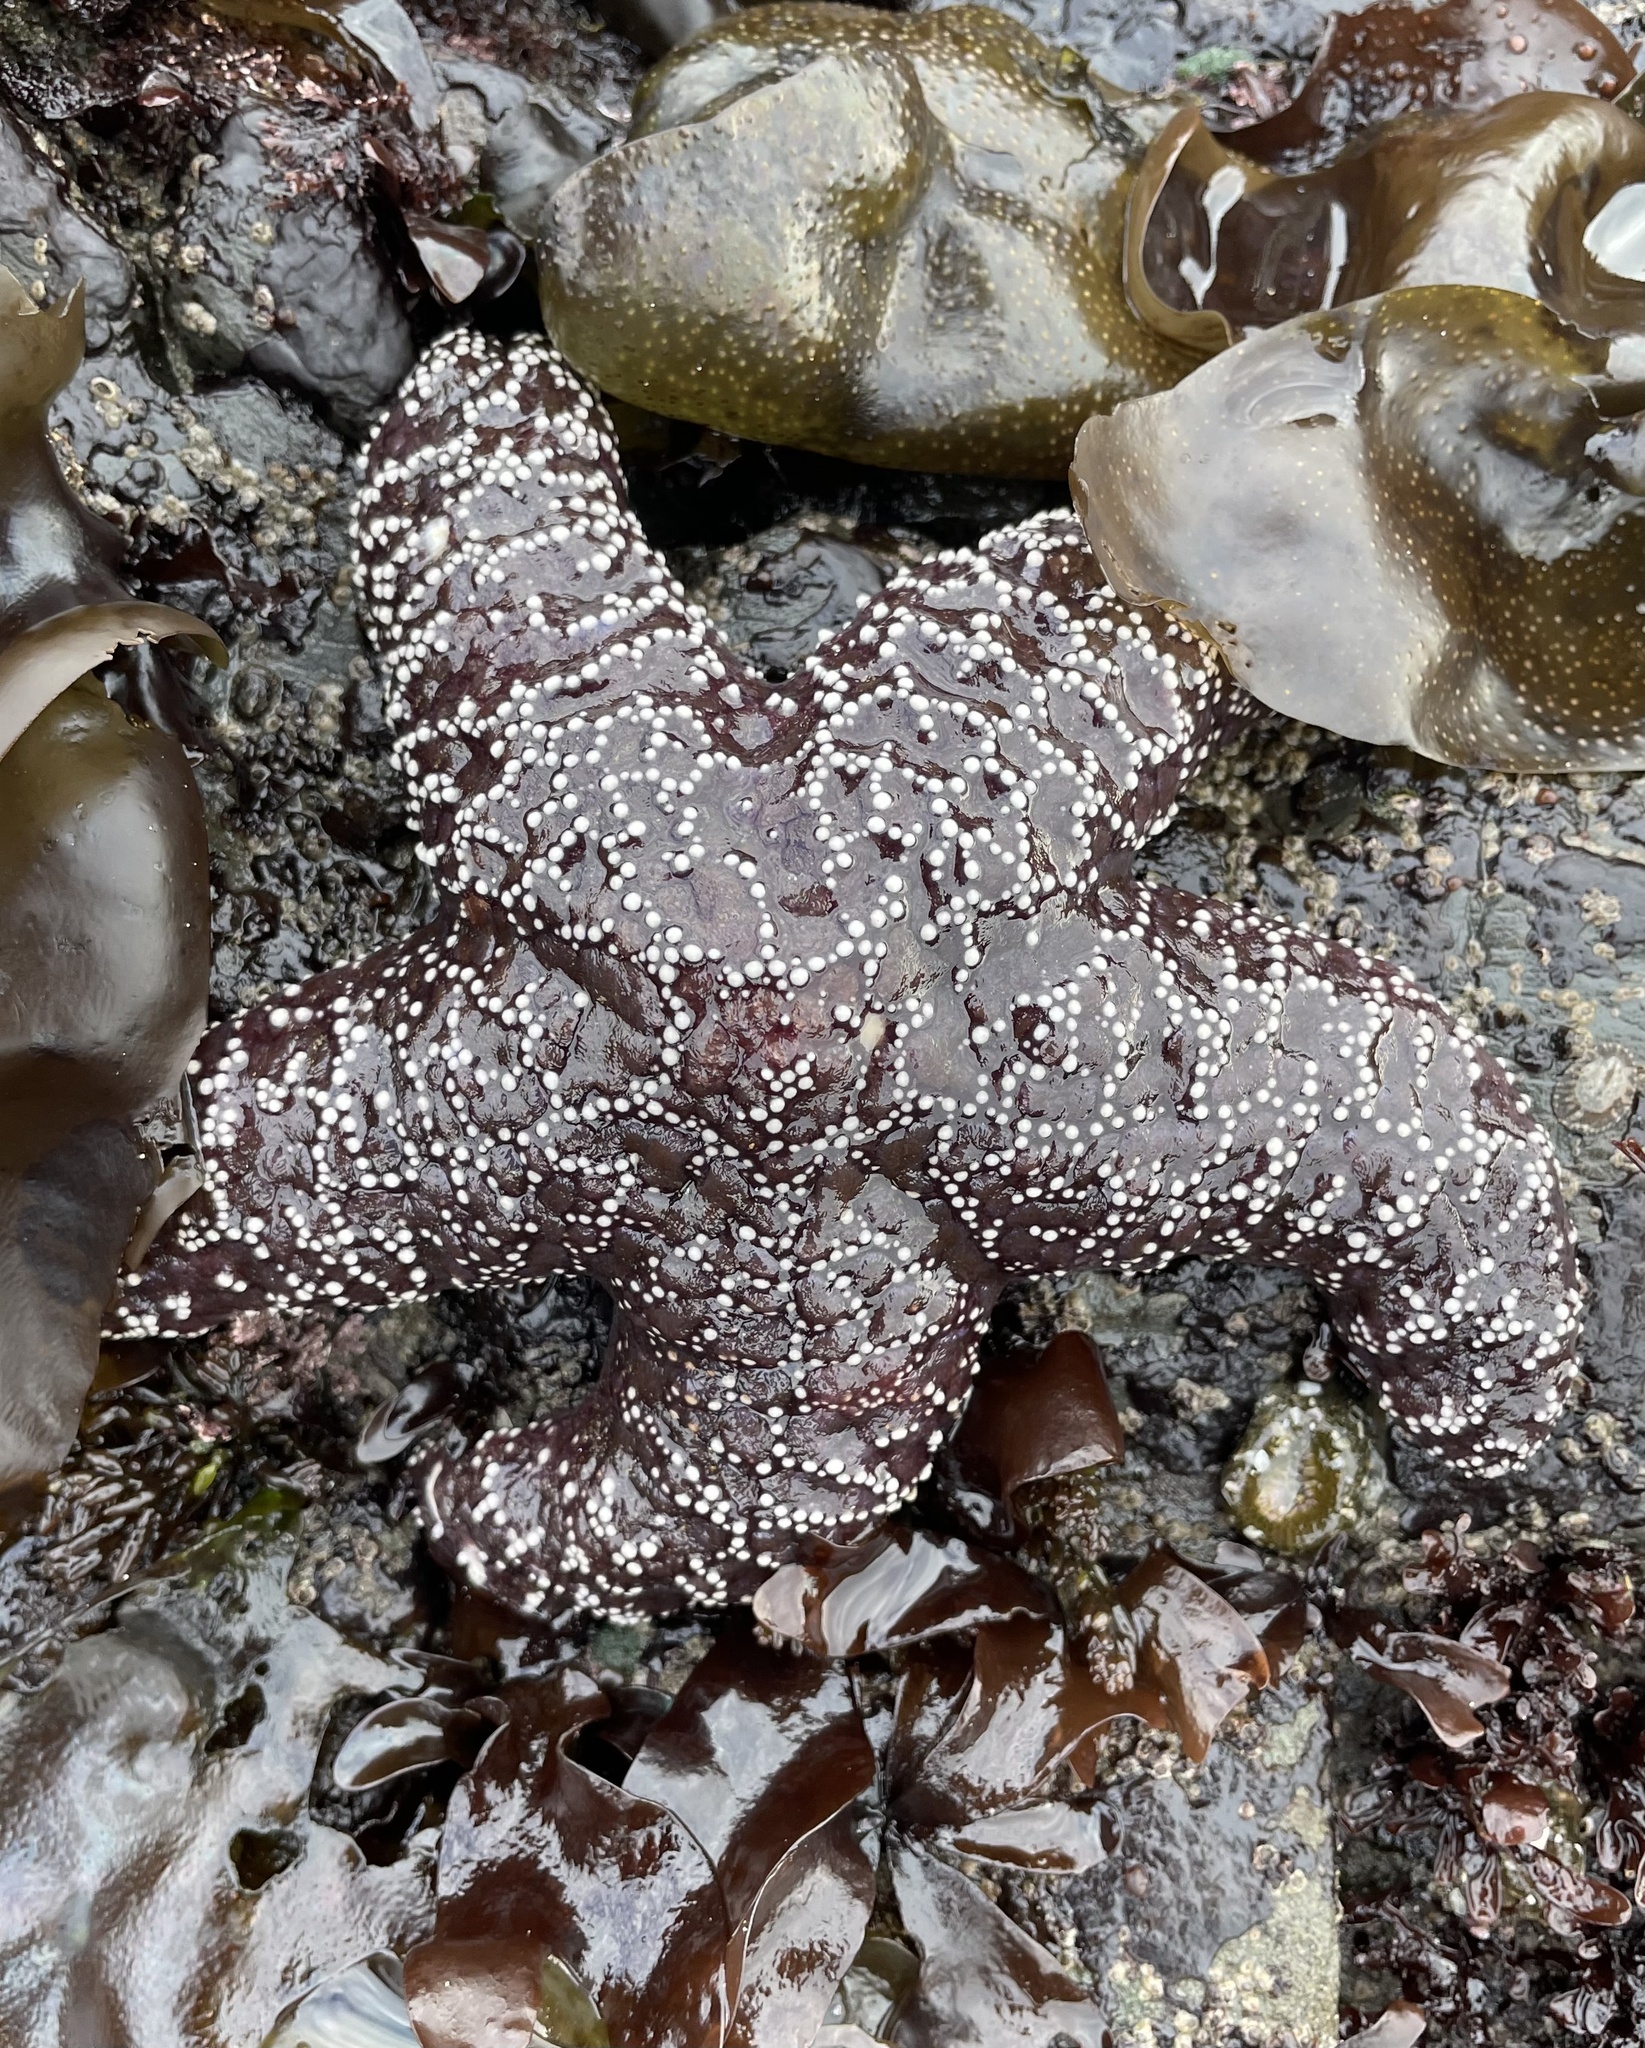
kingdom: Animalia
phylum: Echinodermata
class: Asteroidea
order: Forcipulatida
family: Asteriidae
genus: Pisaster
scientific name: Pisaster ochraceus
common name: Ochre stars
